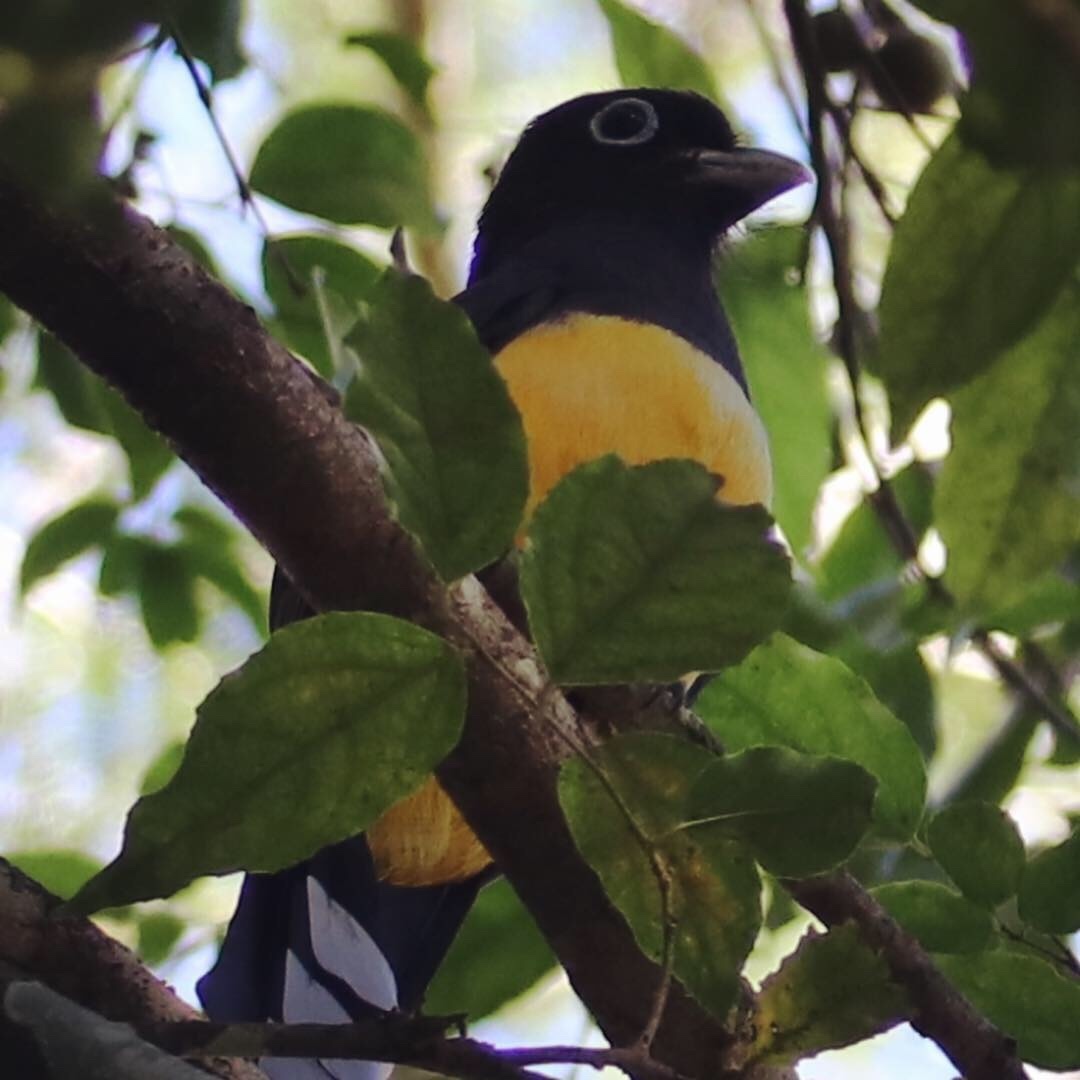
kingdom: Animalia
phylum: Chordata
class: Aves
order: Trogoniformes
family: Trogonidae
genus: Trogon
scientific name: Trogon melanocephalus
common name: Black-headed trogon
